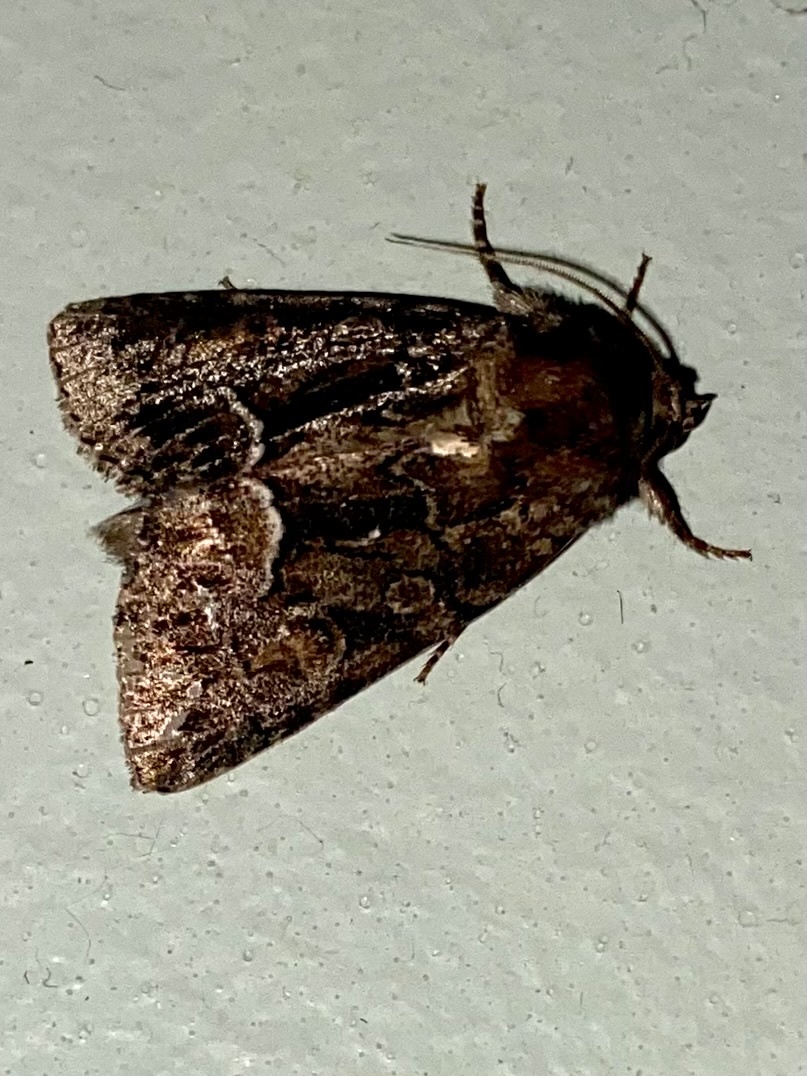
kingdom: Animalia
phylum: Arthropoda
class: Insecta
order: Lepidoptera
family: Noctuidae
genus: Thalpophila
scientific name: Thalpophila matura
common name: Straw underwing
